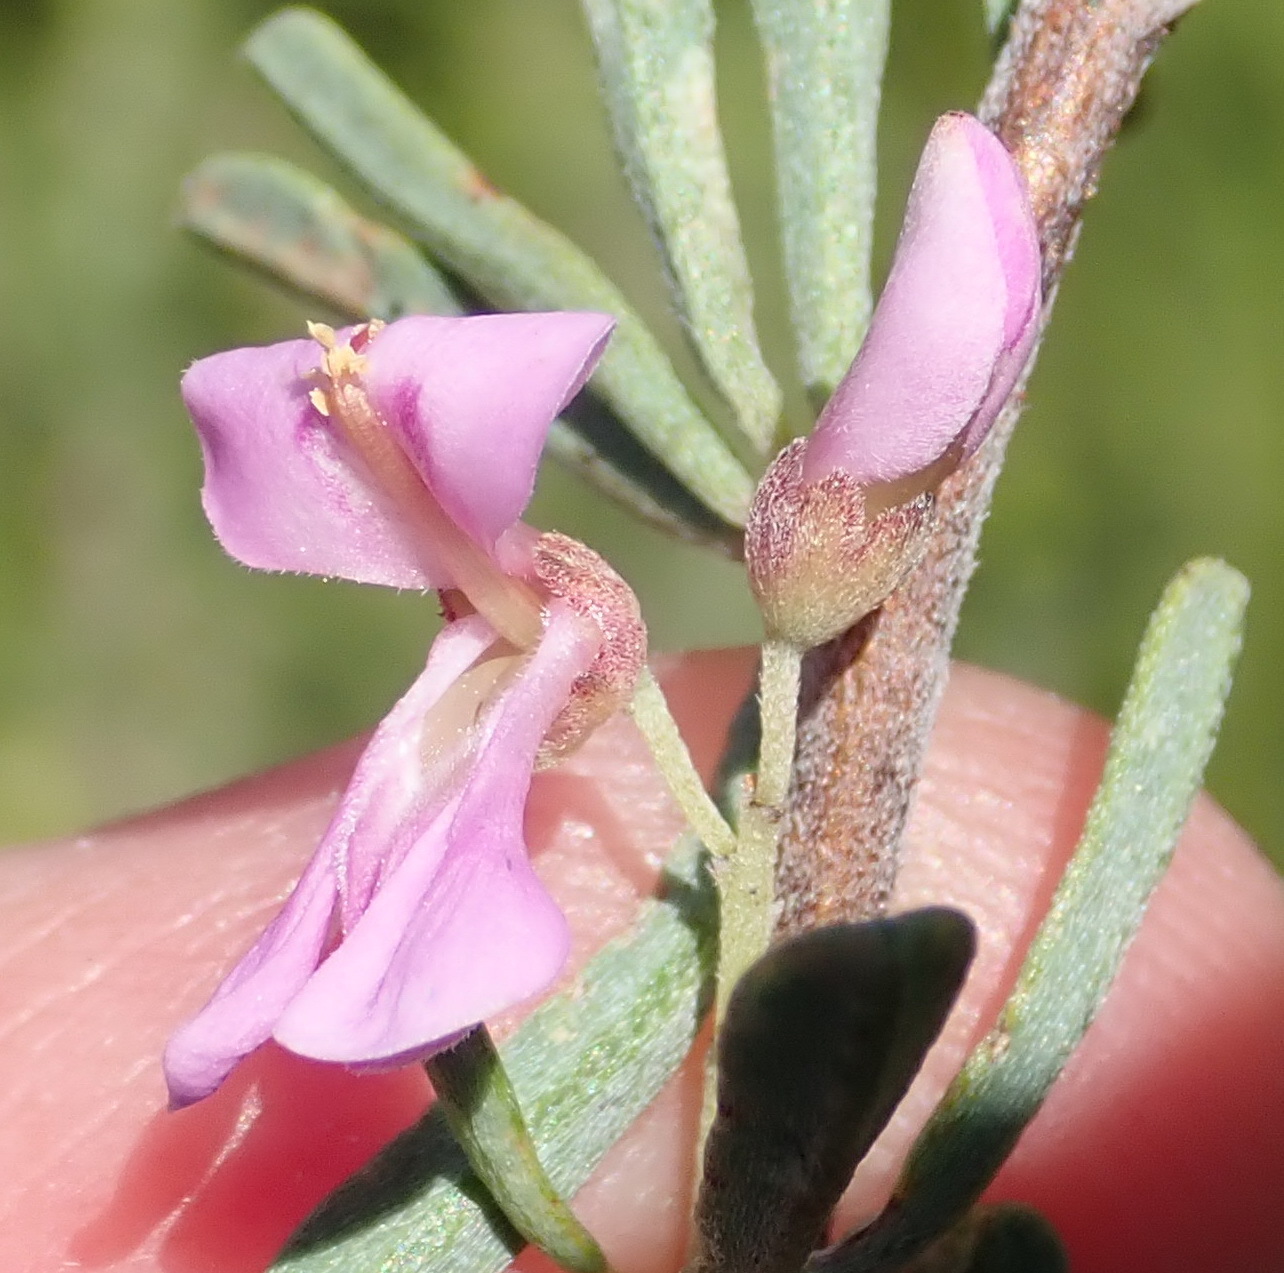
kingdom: Plantae
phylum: Tracheophyta
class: Magnoliopsida
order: Fabales
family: Fabaceae
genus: Indigofera
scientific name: Indigofera flabellata
